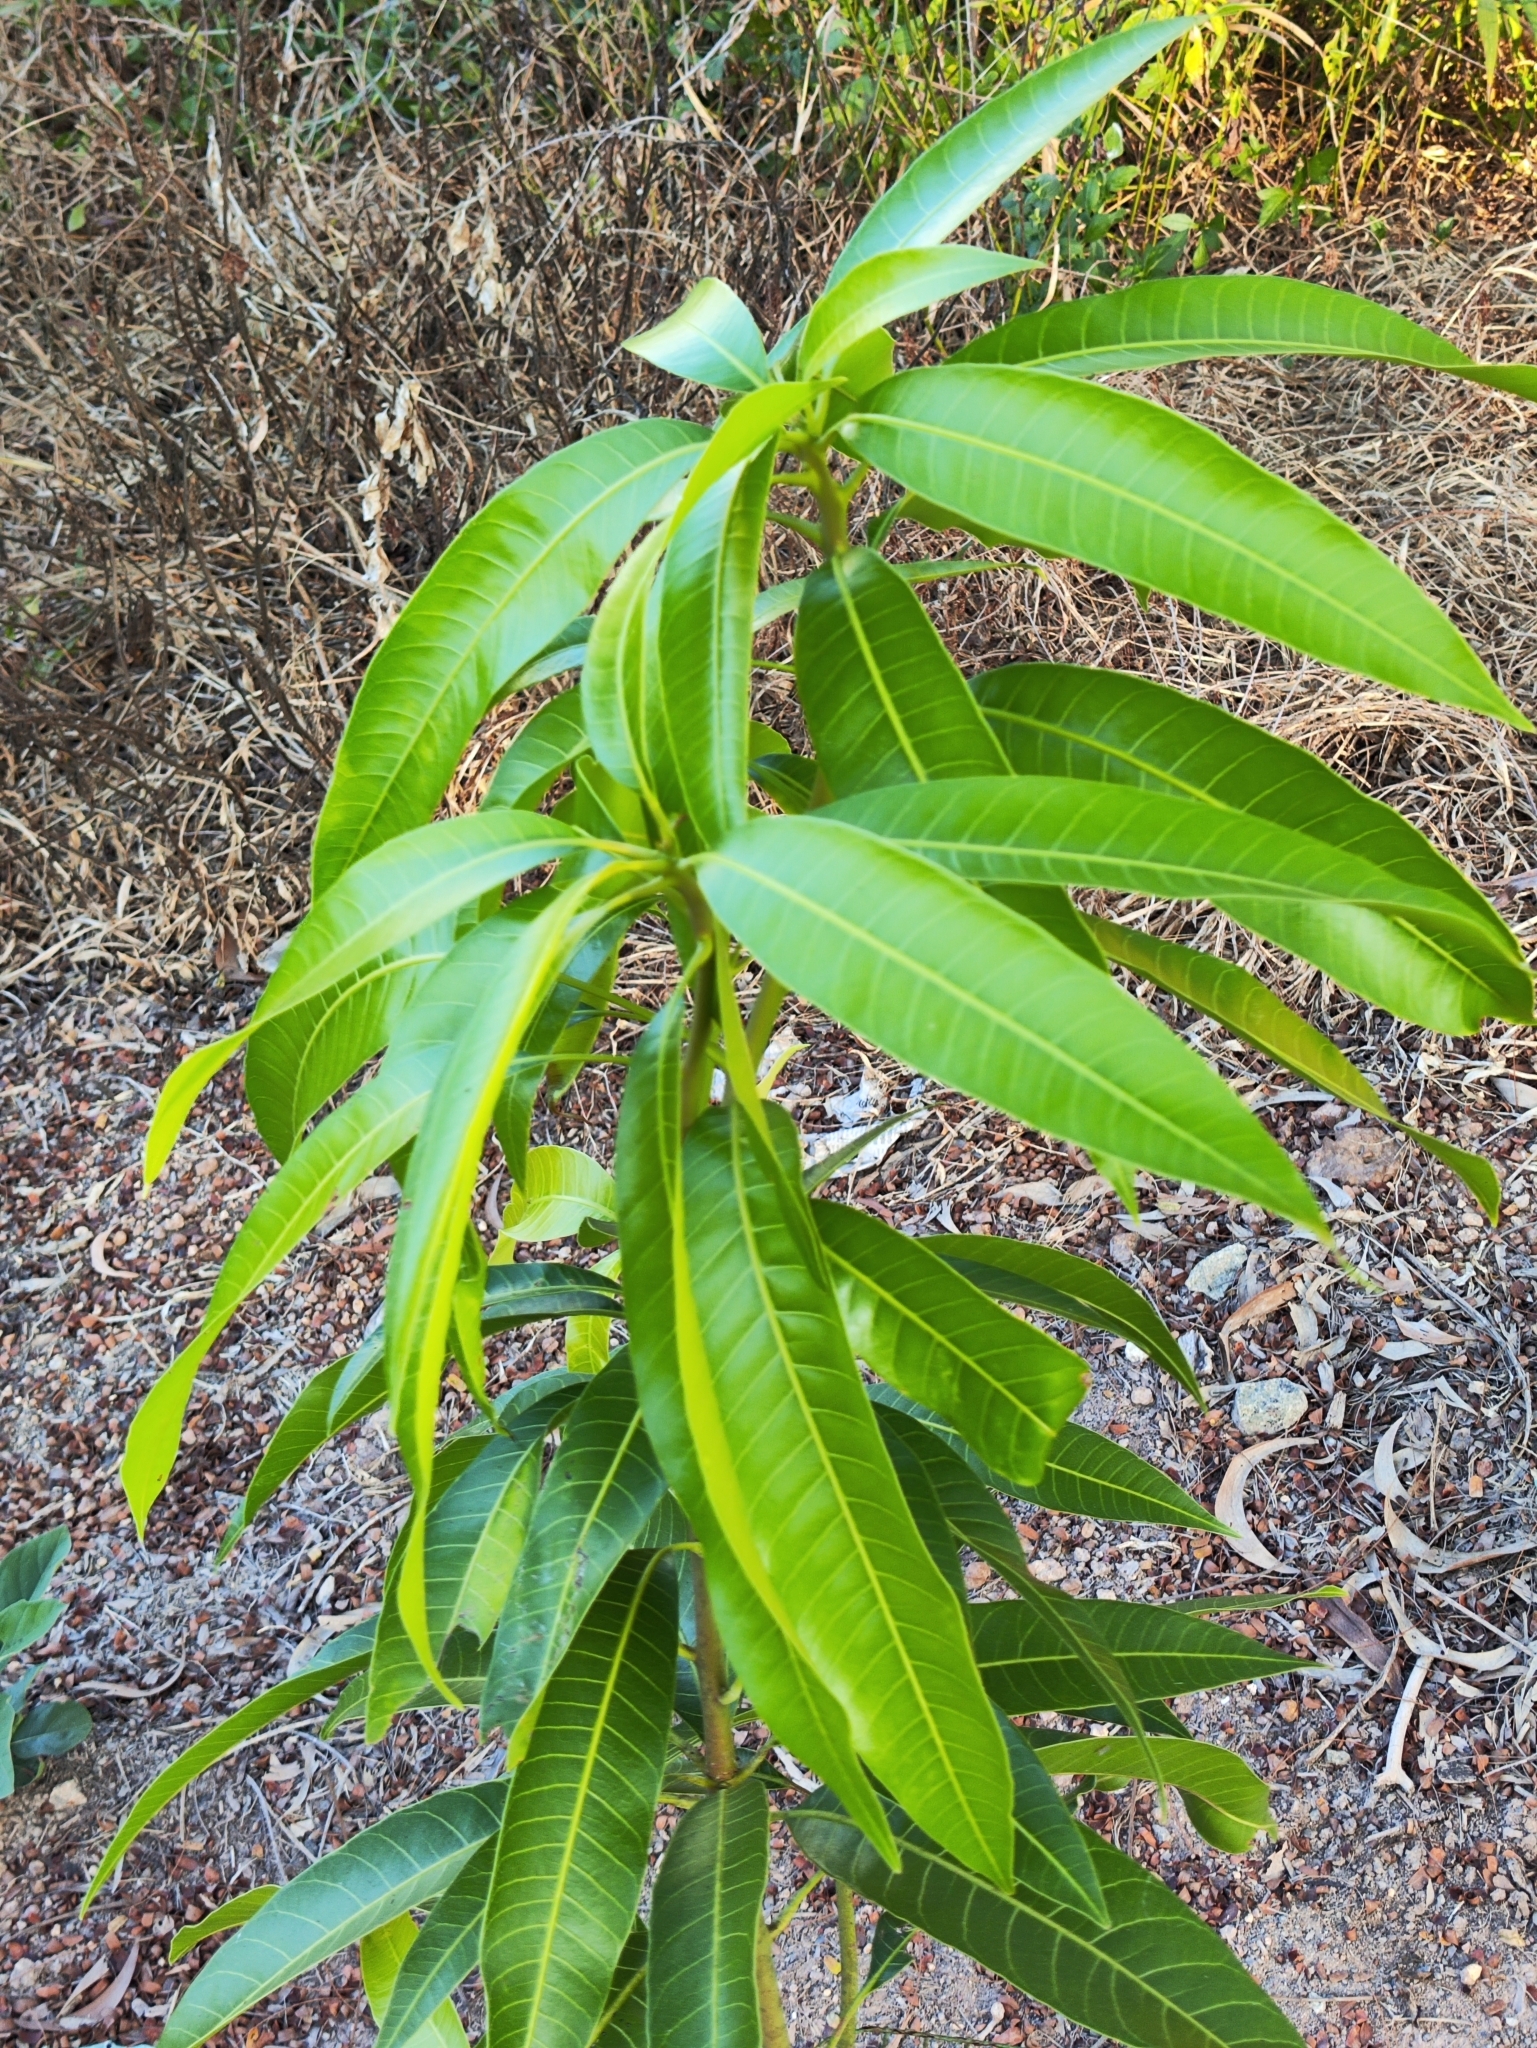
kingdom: Plantae
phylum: Tracheophyta
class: Magnoliopsida
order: Sapindales
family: Anacardiaceae
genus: Mangifera
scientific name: Mangifera indica
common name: Mango
